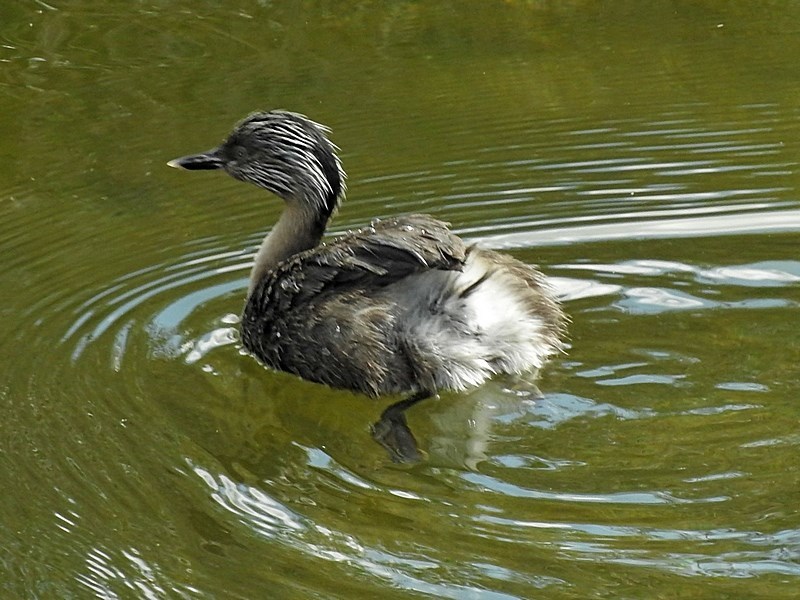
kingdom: Animalia
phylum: Chordata
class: Aves
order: Podicipediformes
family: Podicipedidae
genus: Poliocephalus
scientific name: Poliocephalus poliocephalus
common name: Hoary-headed grebe
